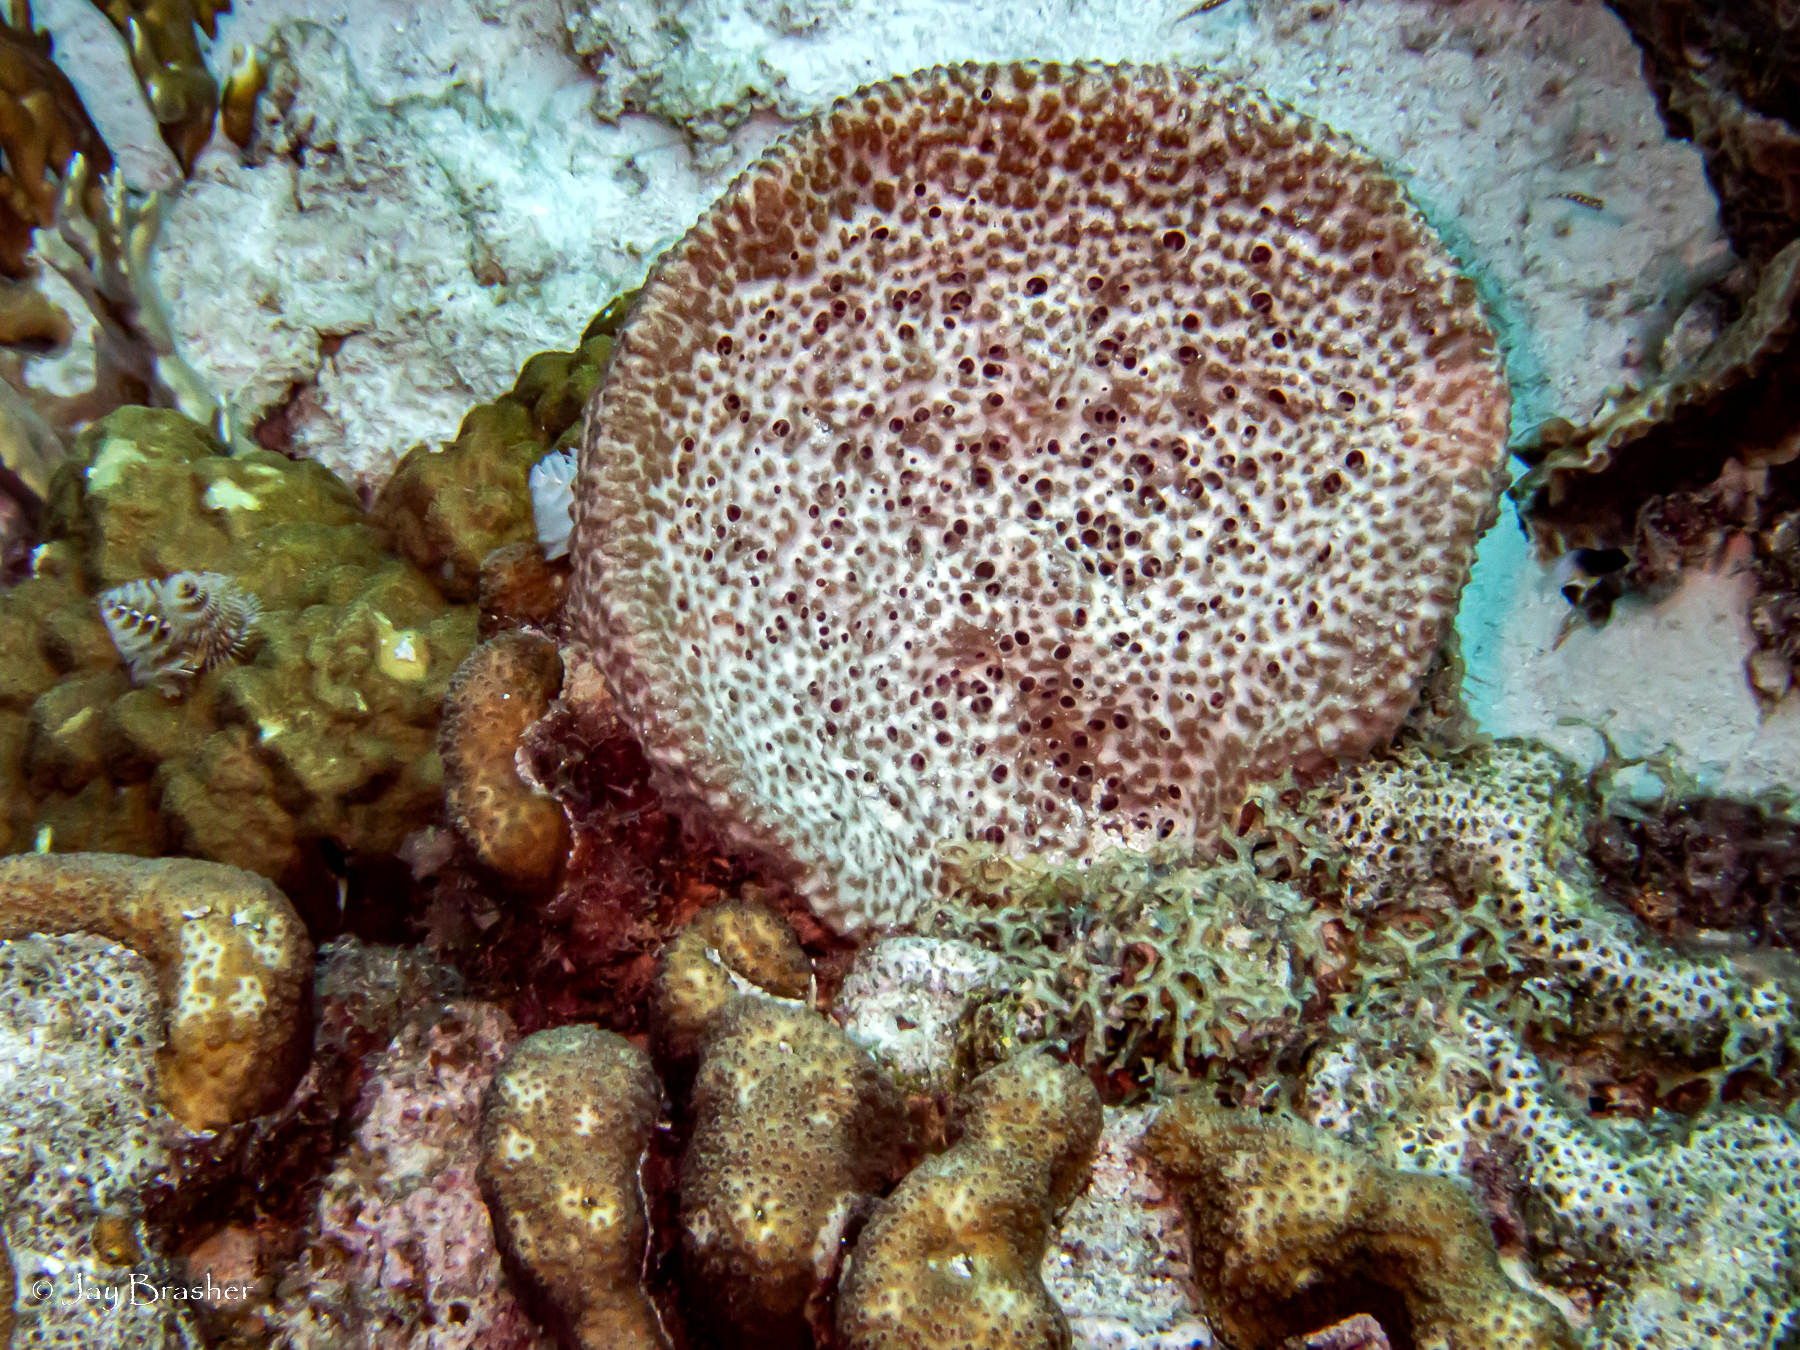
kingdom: Animalia
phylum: Porifera
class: Demospongiae
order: Dictyoceratida
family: Irciniidae
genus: Ircinia
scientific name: Ircinia campana
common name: Vase sponge
